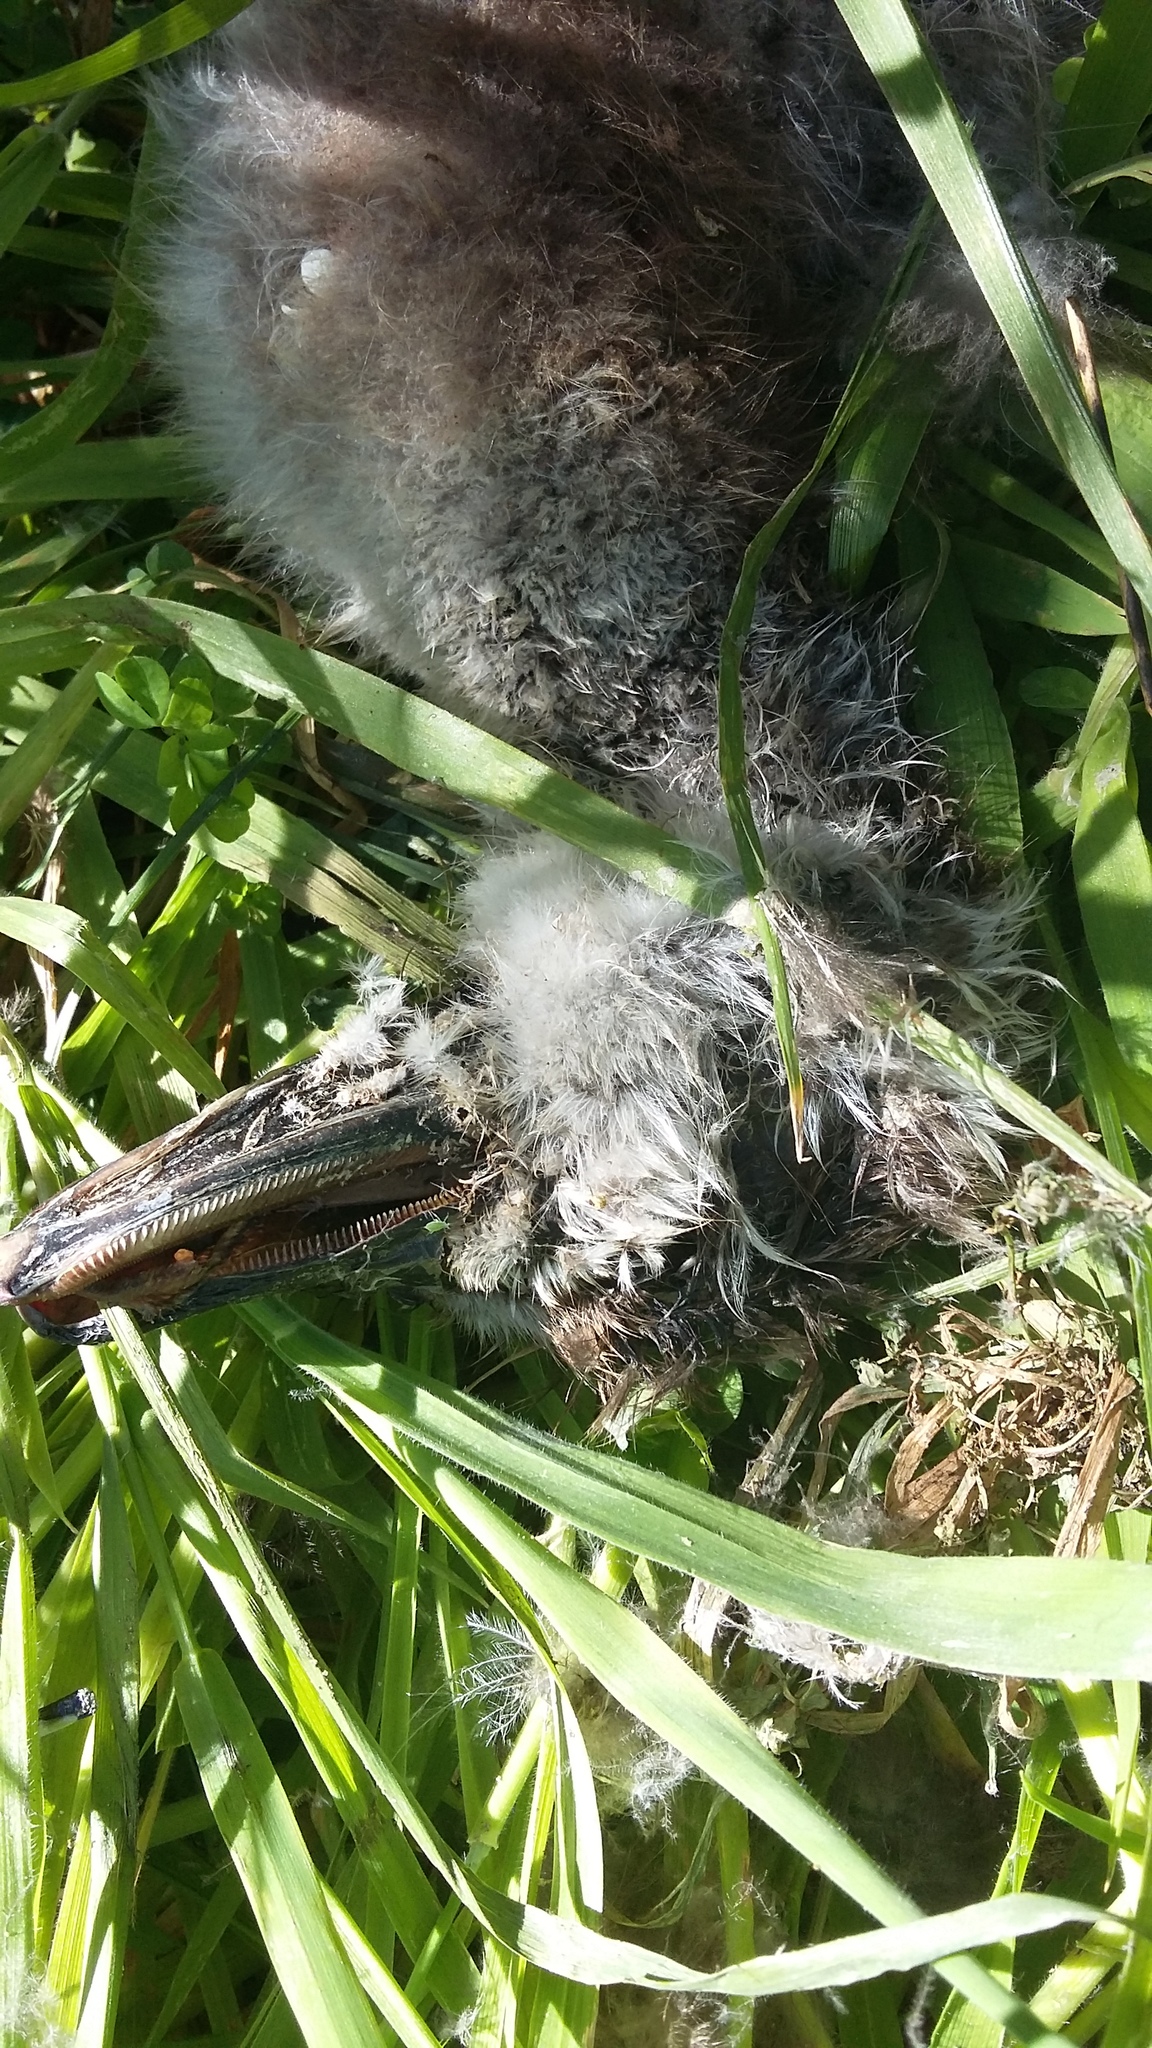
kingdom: Animalia
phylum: Chordata
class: Aves
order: Anseriformes
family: Anatidae
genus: Tadorna
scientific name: Tadorna variegata
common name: Paradise shelduck
